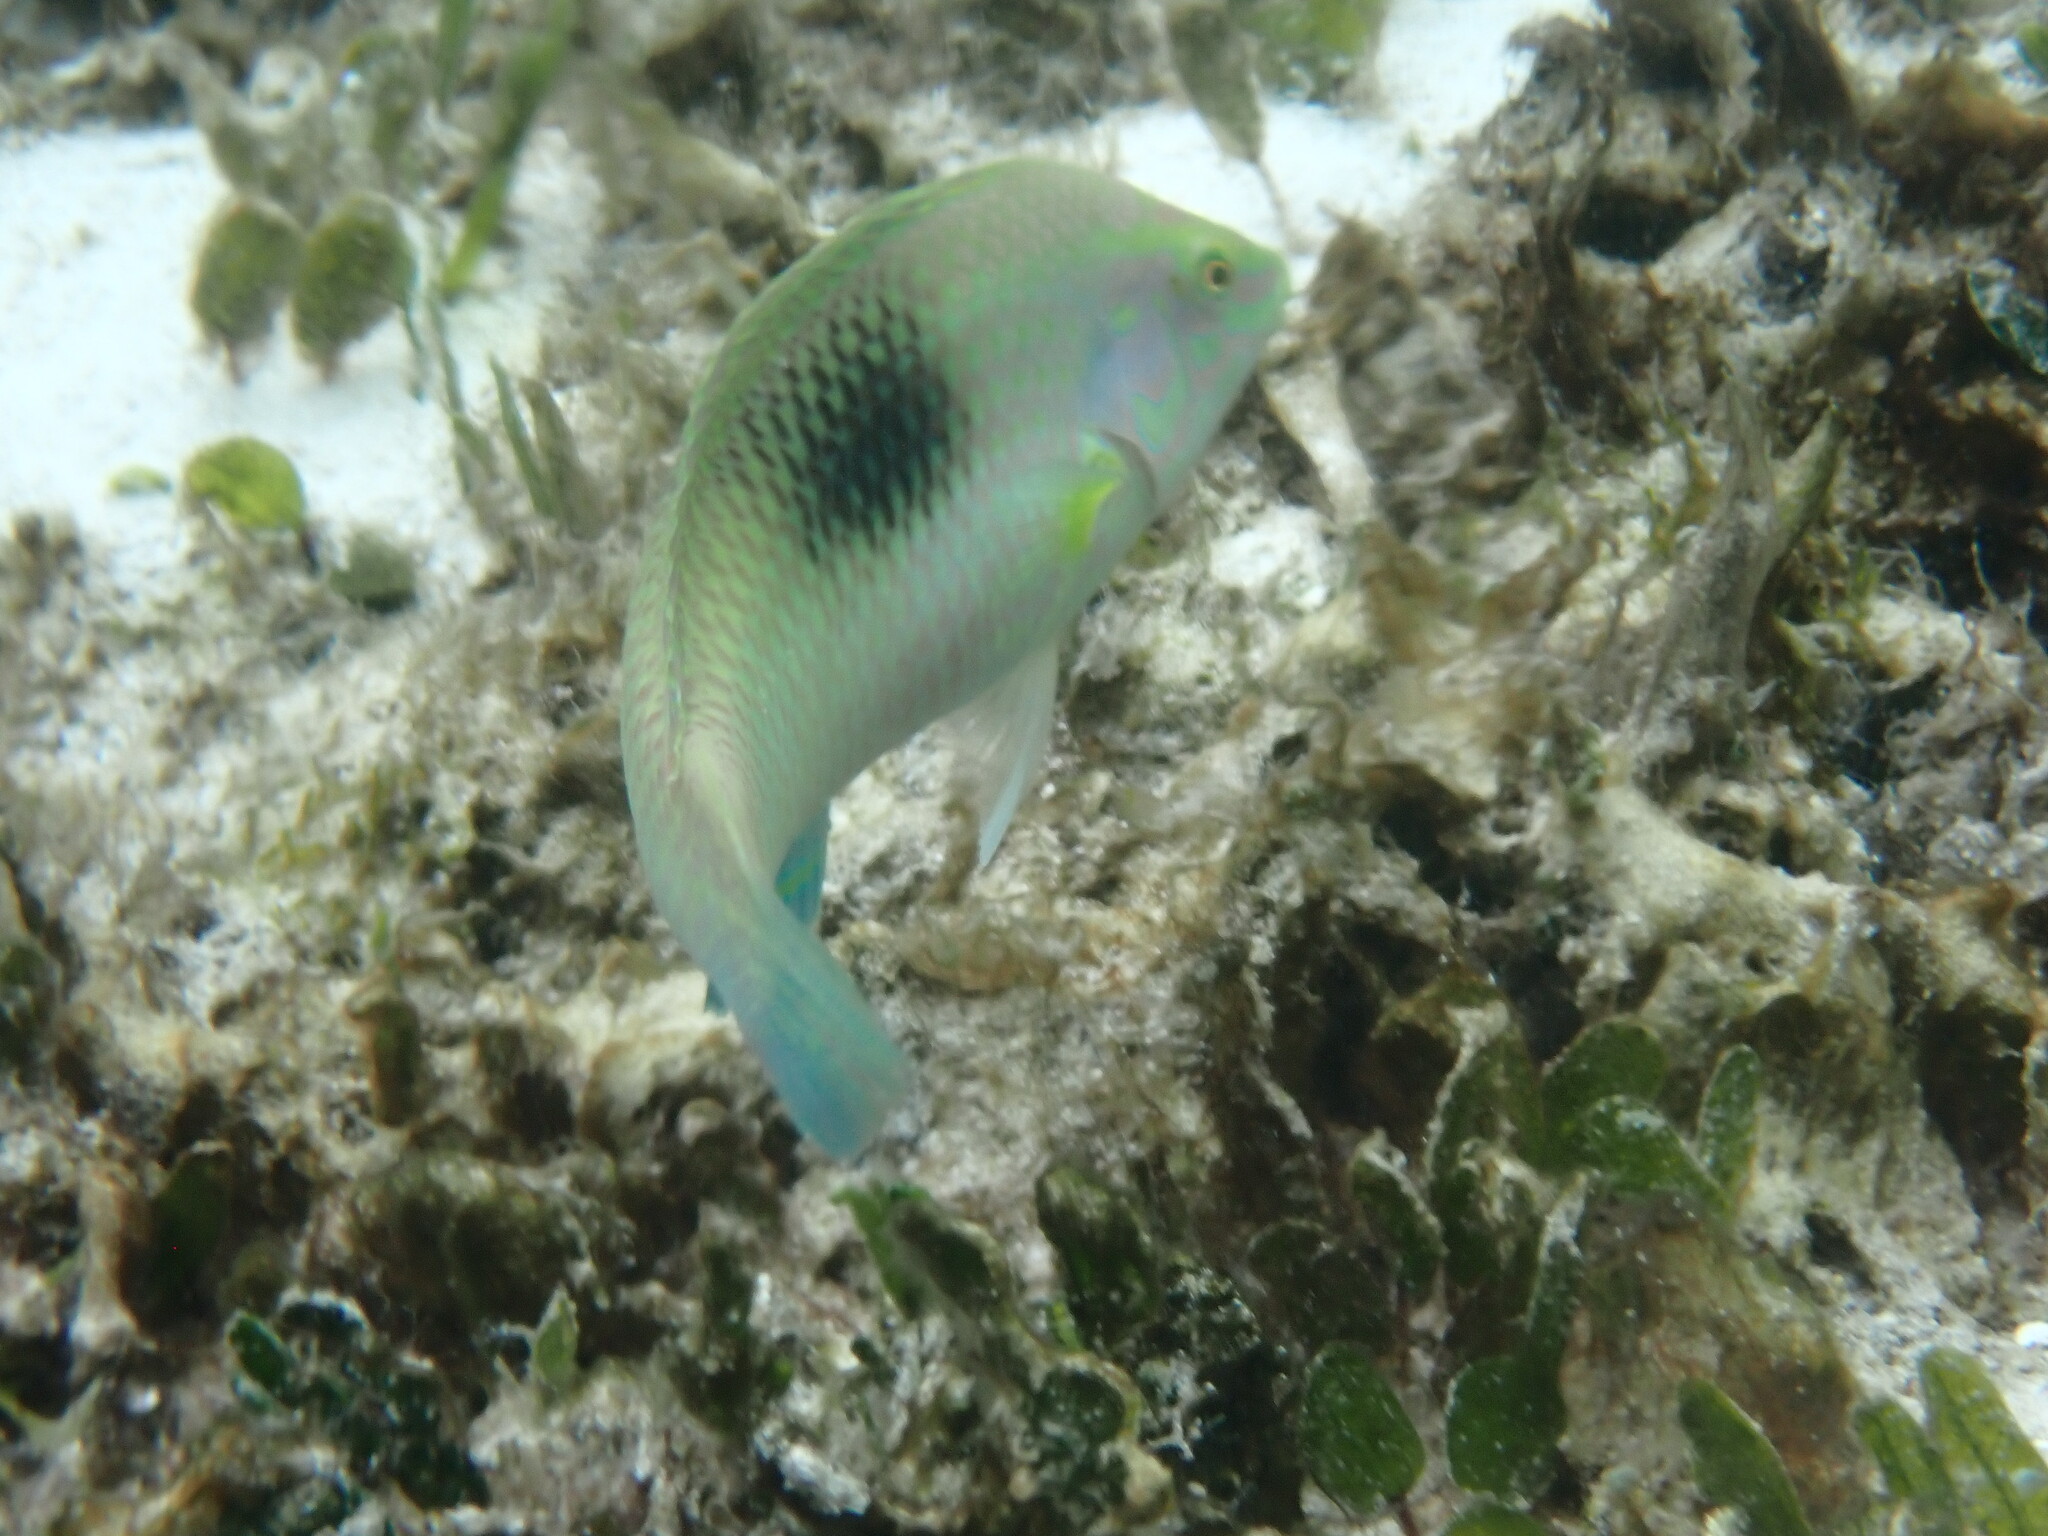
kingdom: Animalia
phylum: Chordata
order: Perciformes
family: Labridae
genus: Halichoeres
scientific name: Halichoeres chloropterus
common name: Pastel-green wrasse
